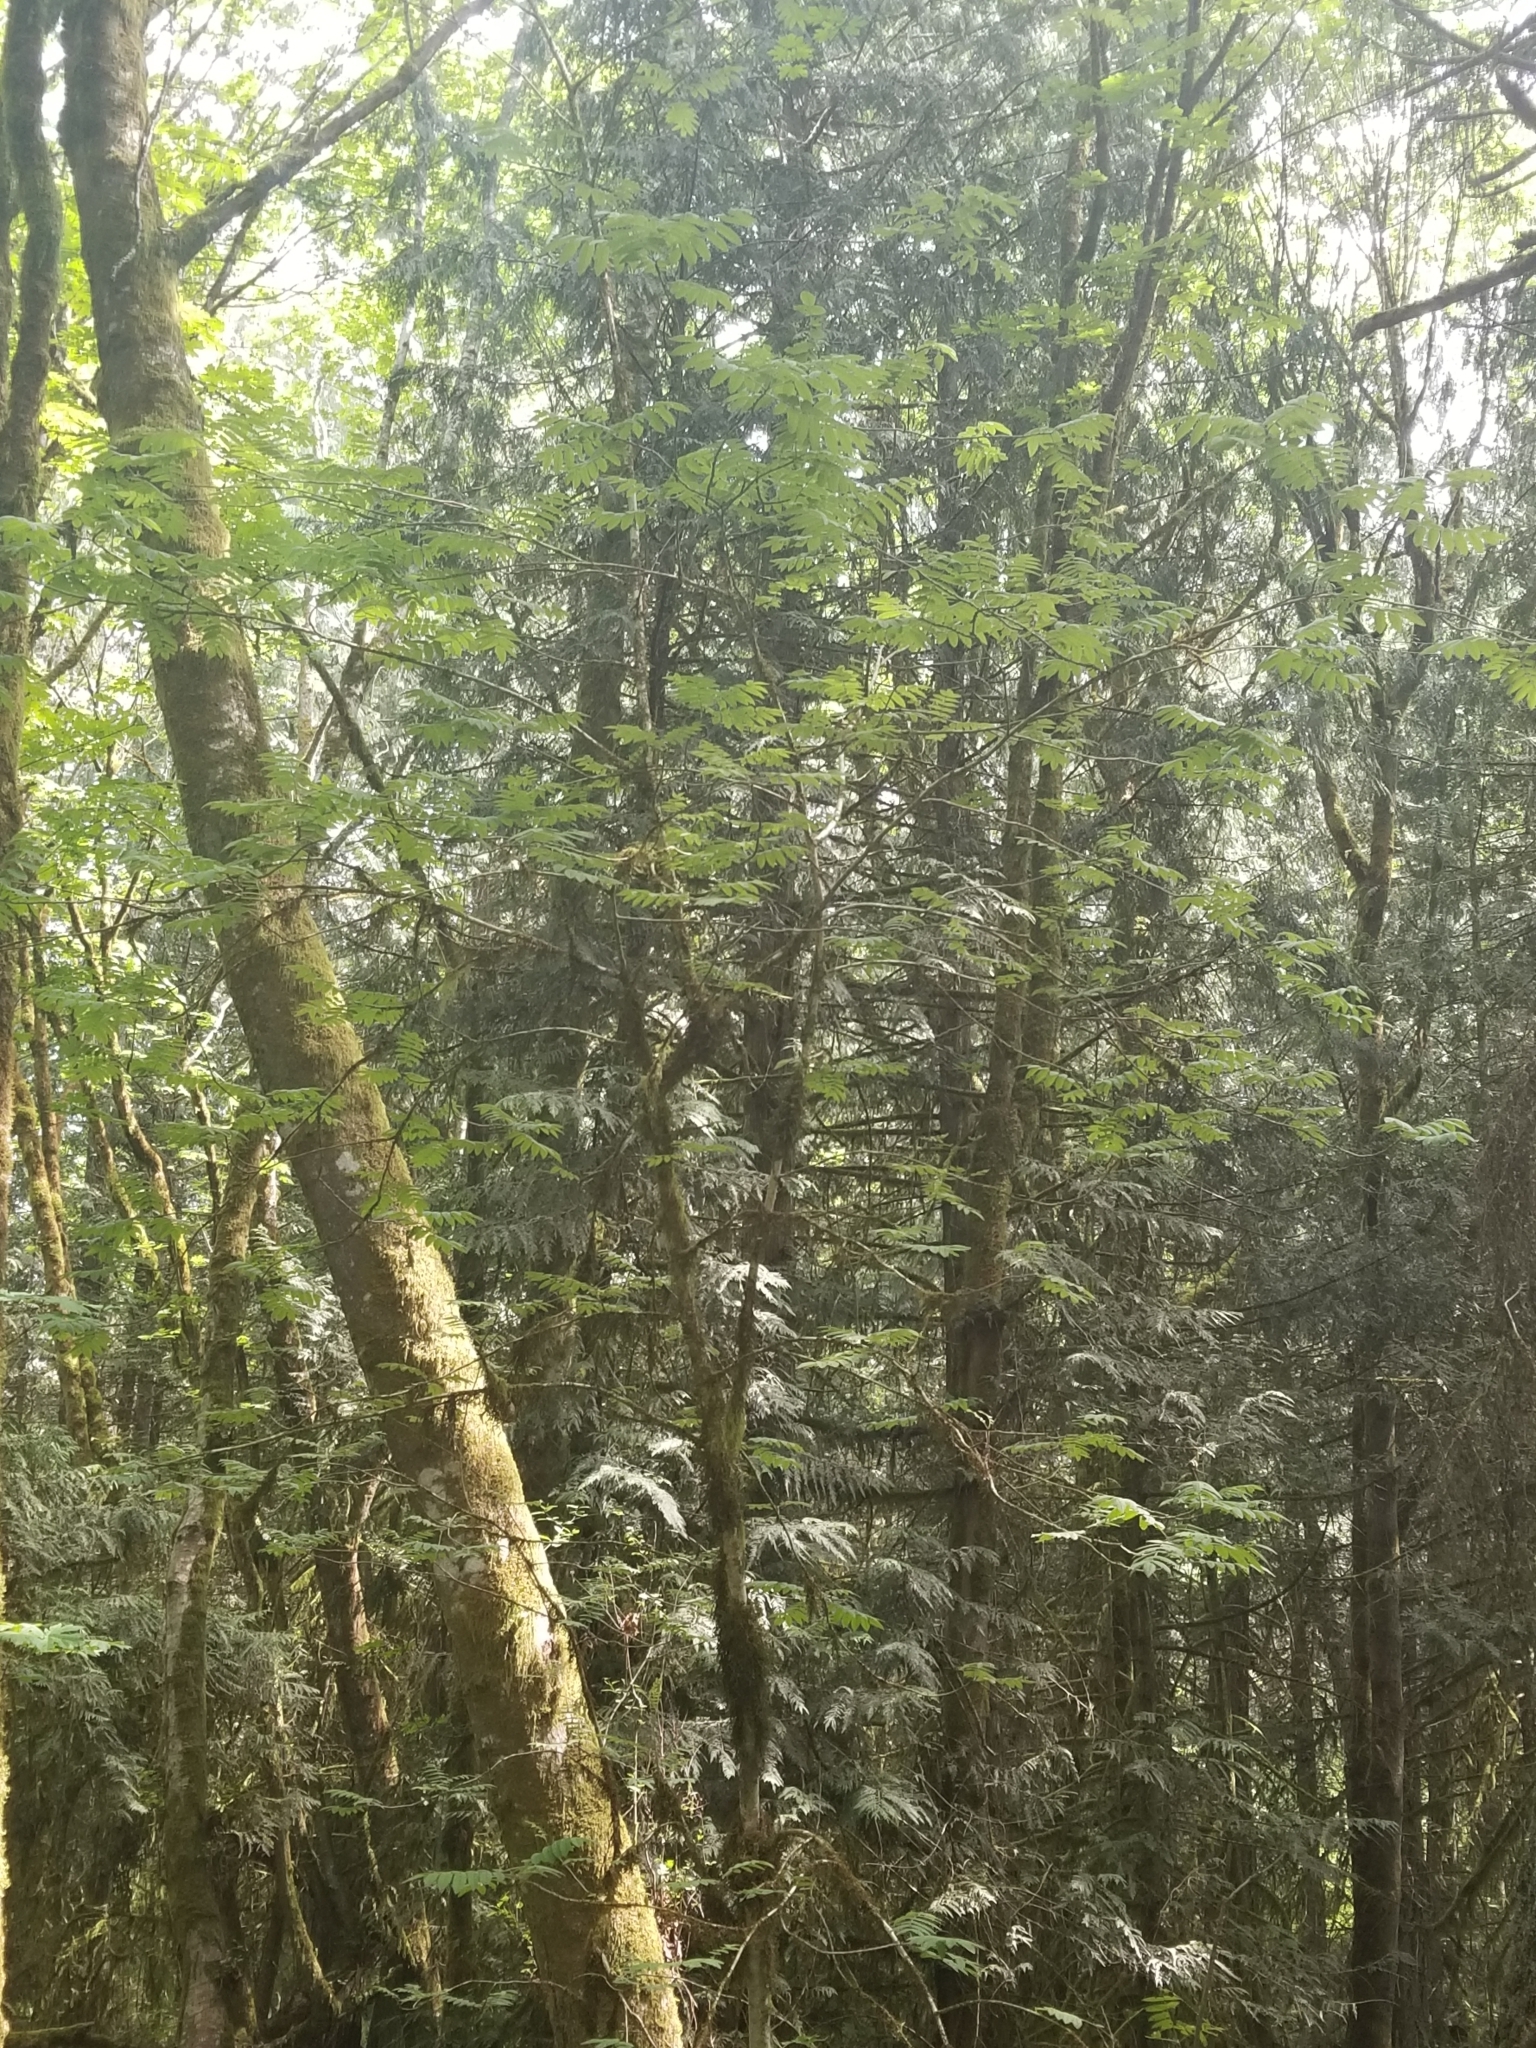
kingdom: Plantae
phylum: Tracheophyta
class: Magnoliopsida
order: Rosales
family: Rosaceae
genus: Sorbus
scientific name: Sorbus aucuparia
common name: Rowan
